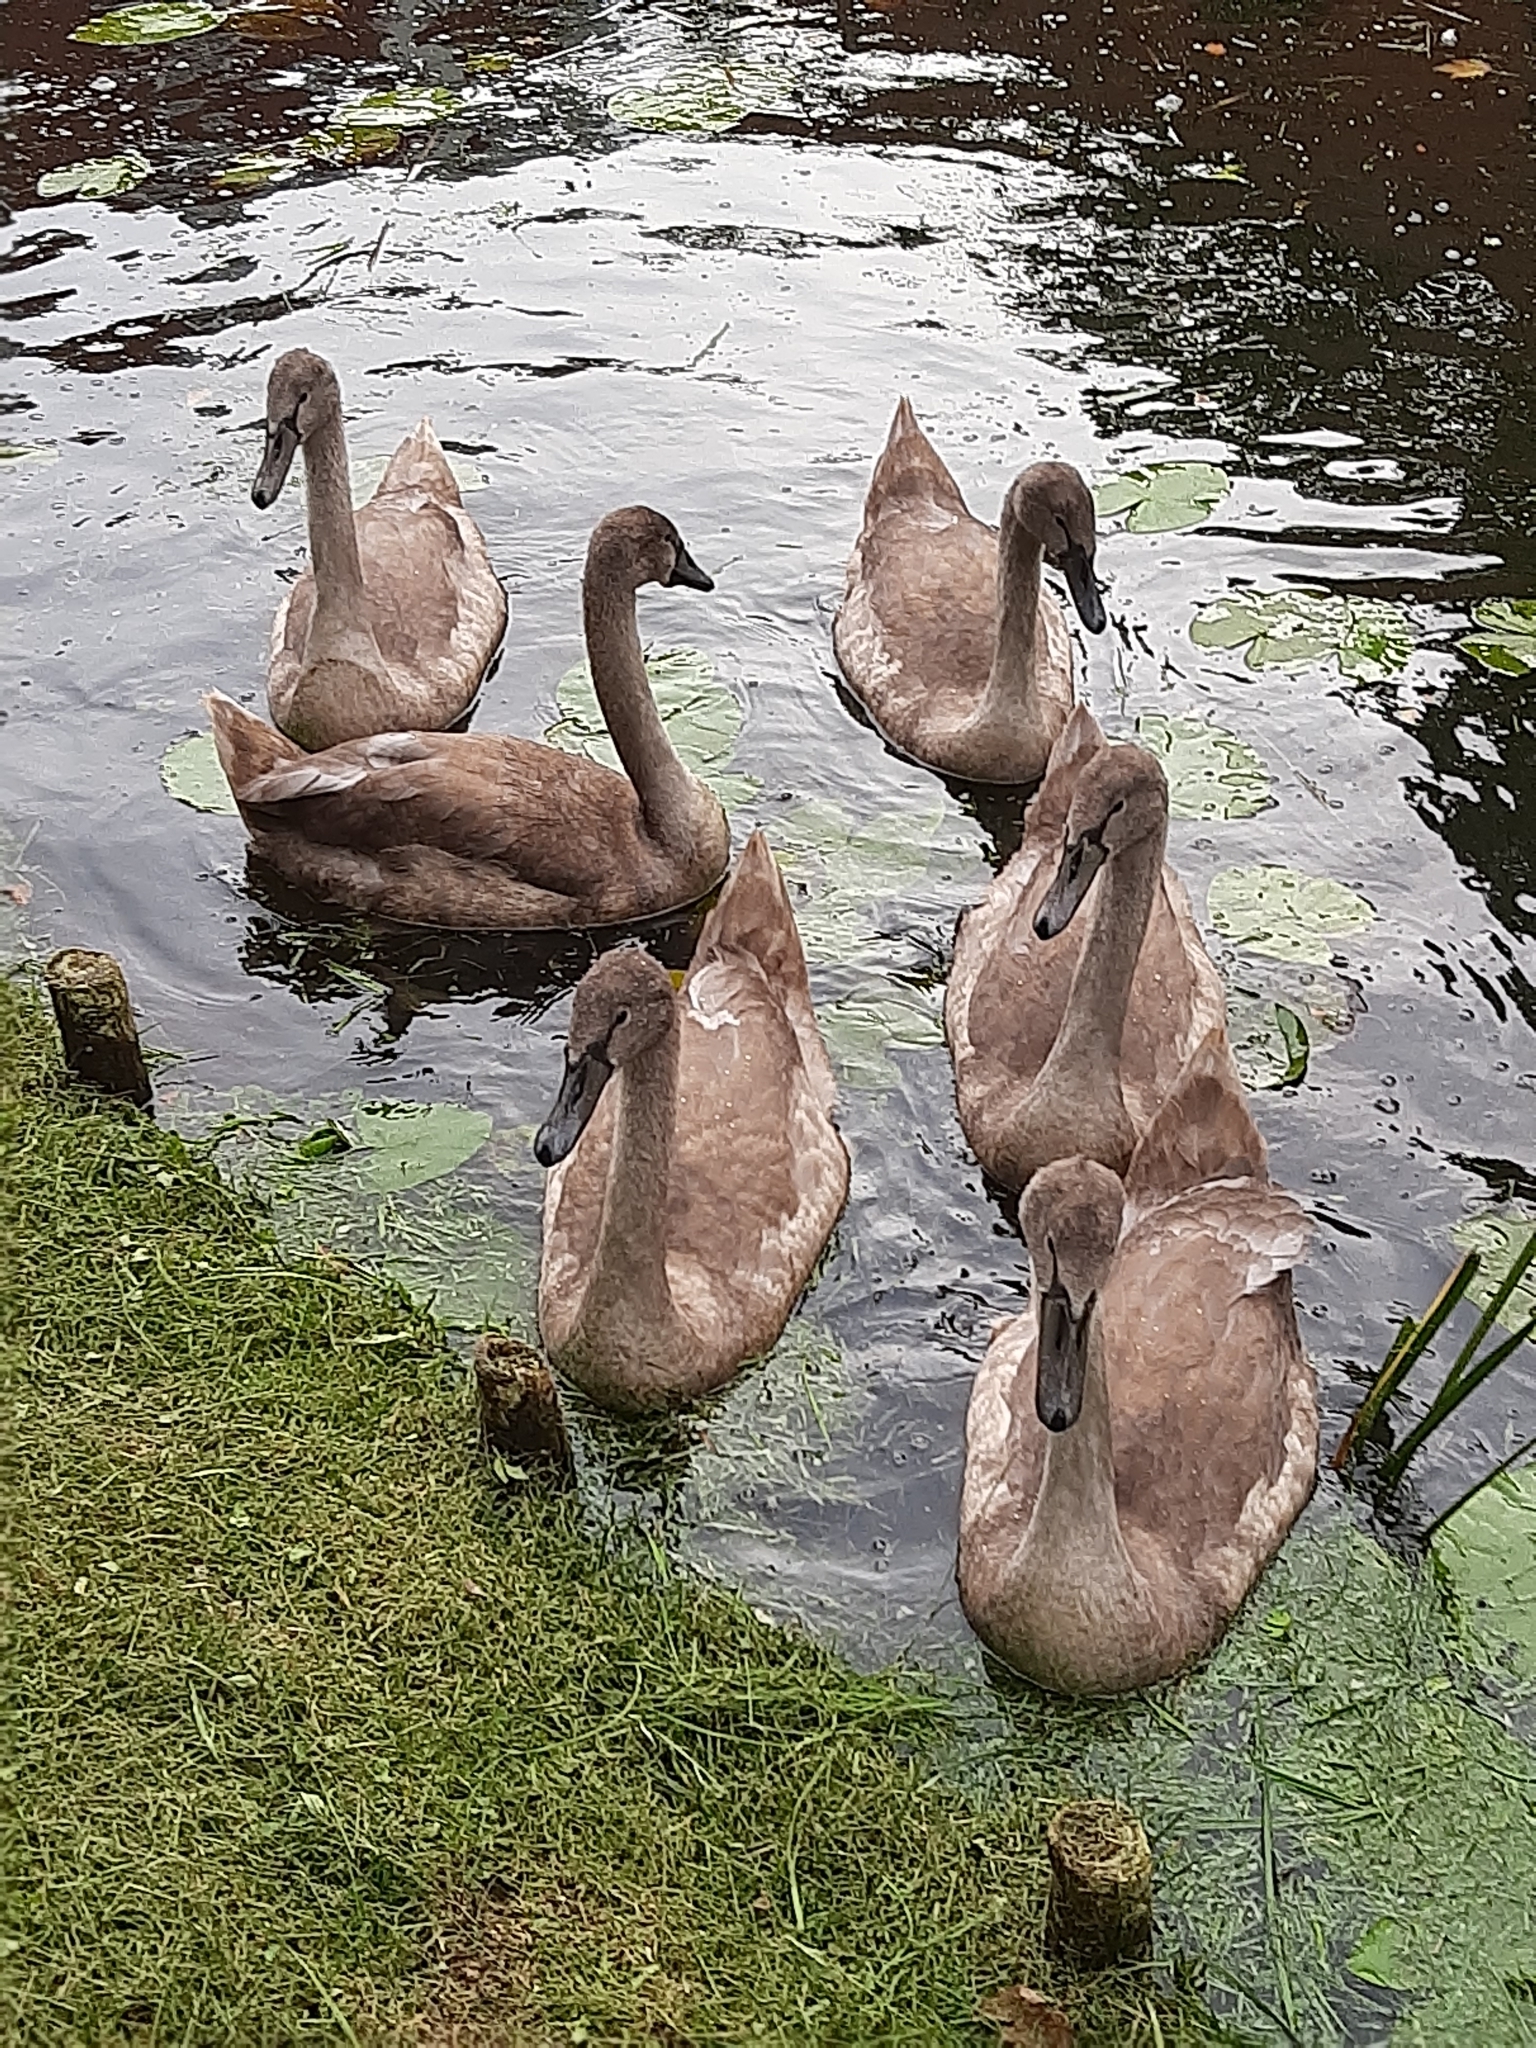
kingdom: Animalia
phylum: Chordata
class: Aves
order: Anseriformes
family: Anatidae
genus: Cygnus
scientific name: Cygnus olor
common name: Mute swan
